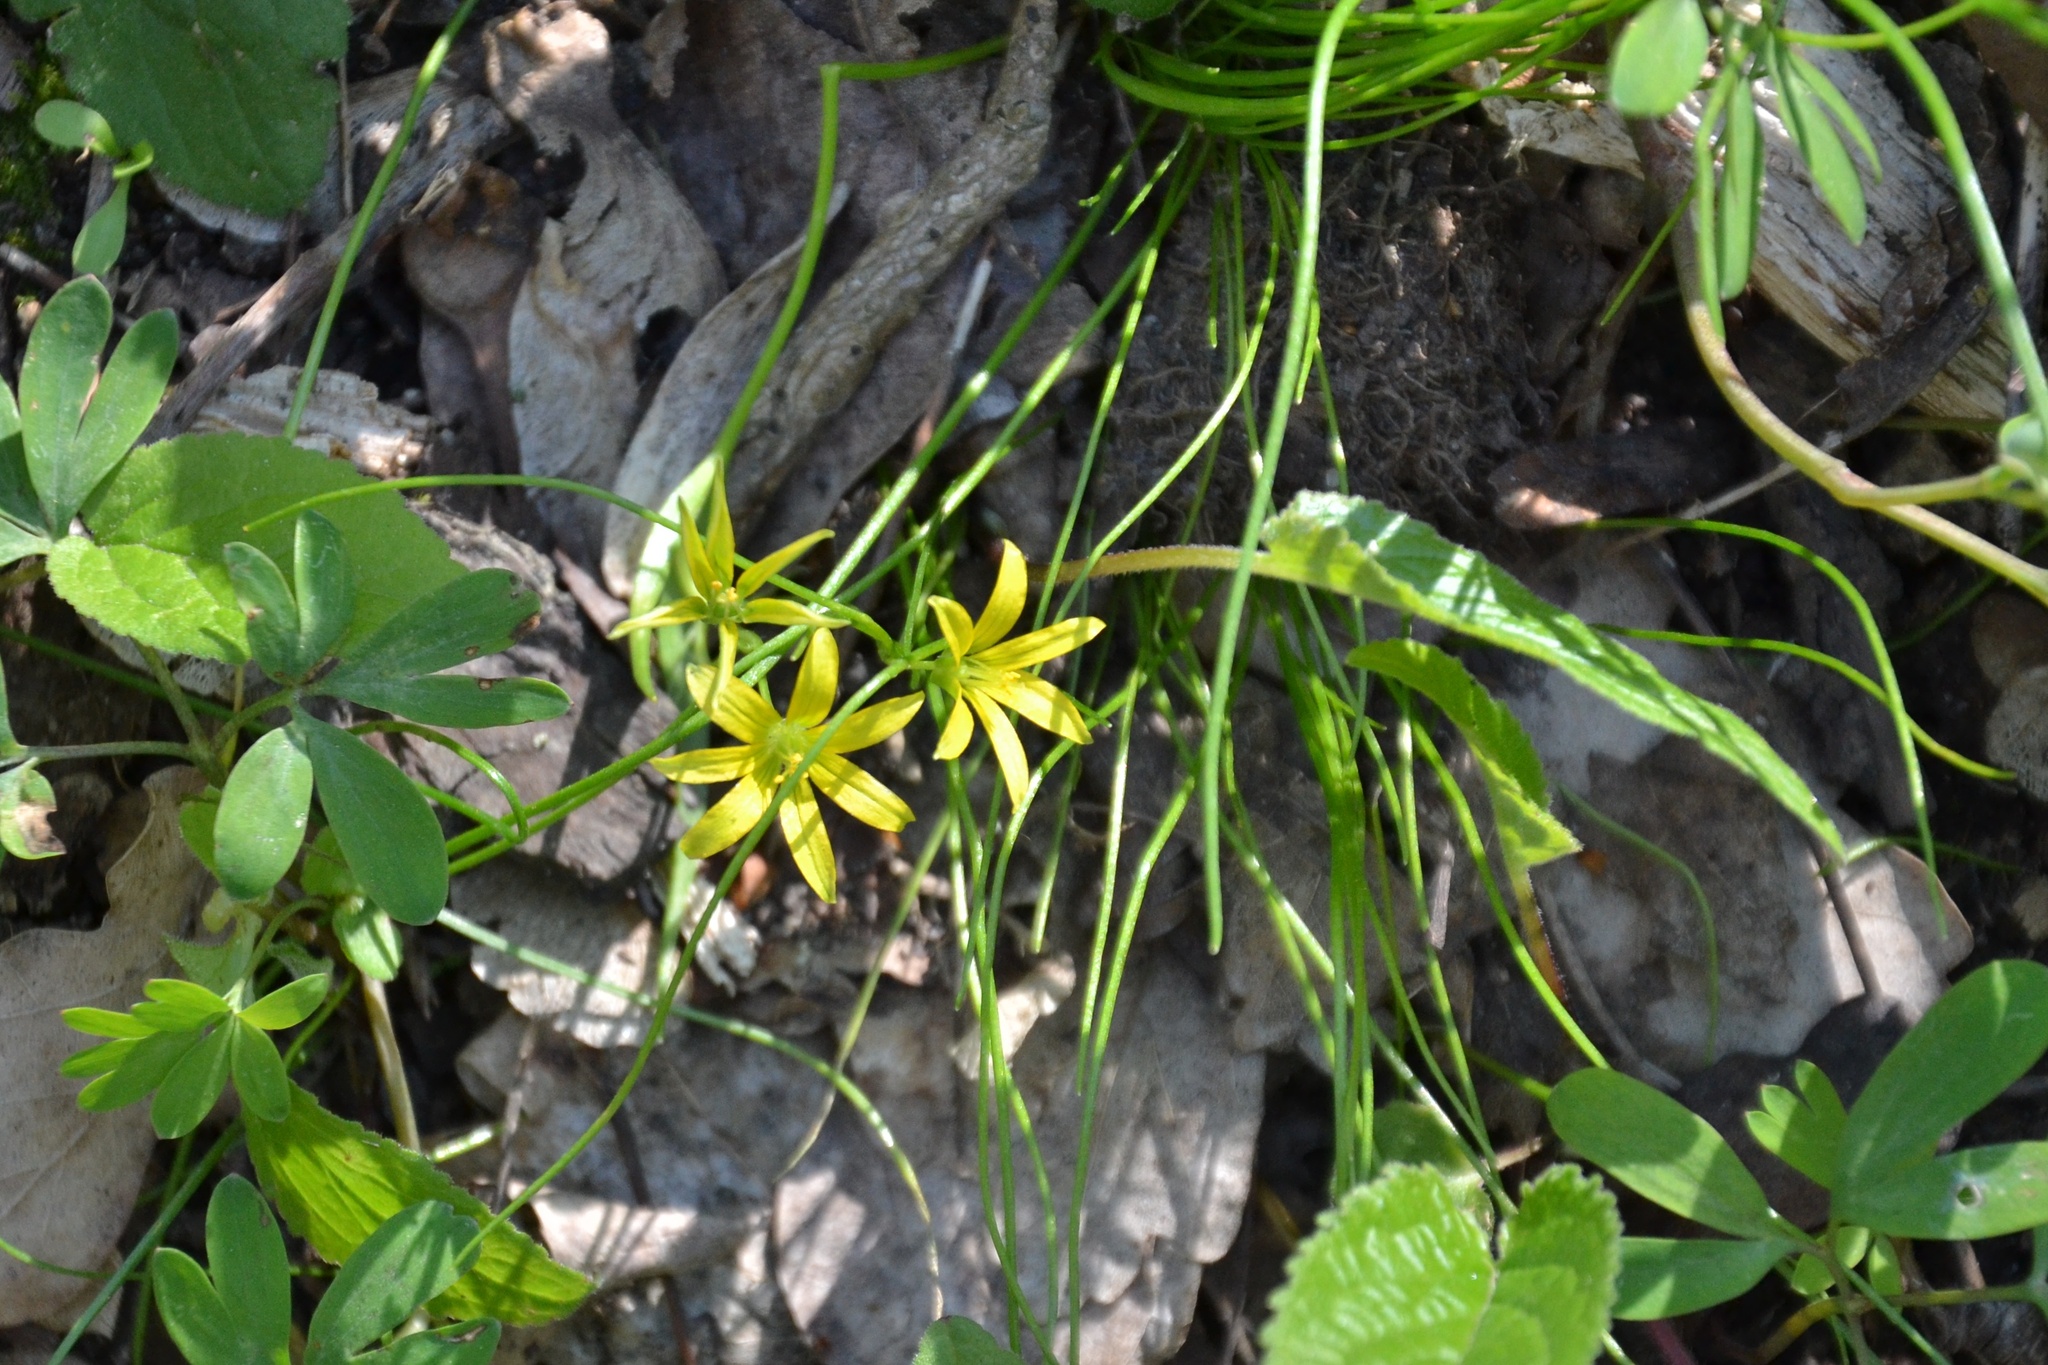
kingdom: Plantae
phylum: Tracheophyta
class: Liliopsida
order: Liliales
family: Liliaceae
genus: Gagea
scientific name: Gagea minima
